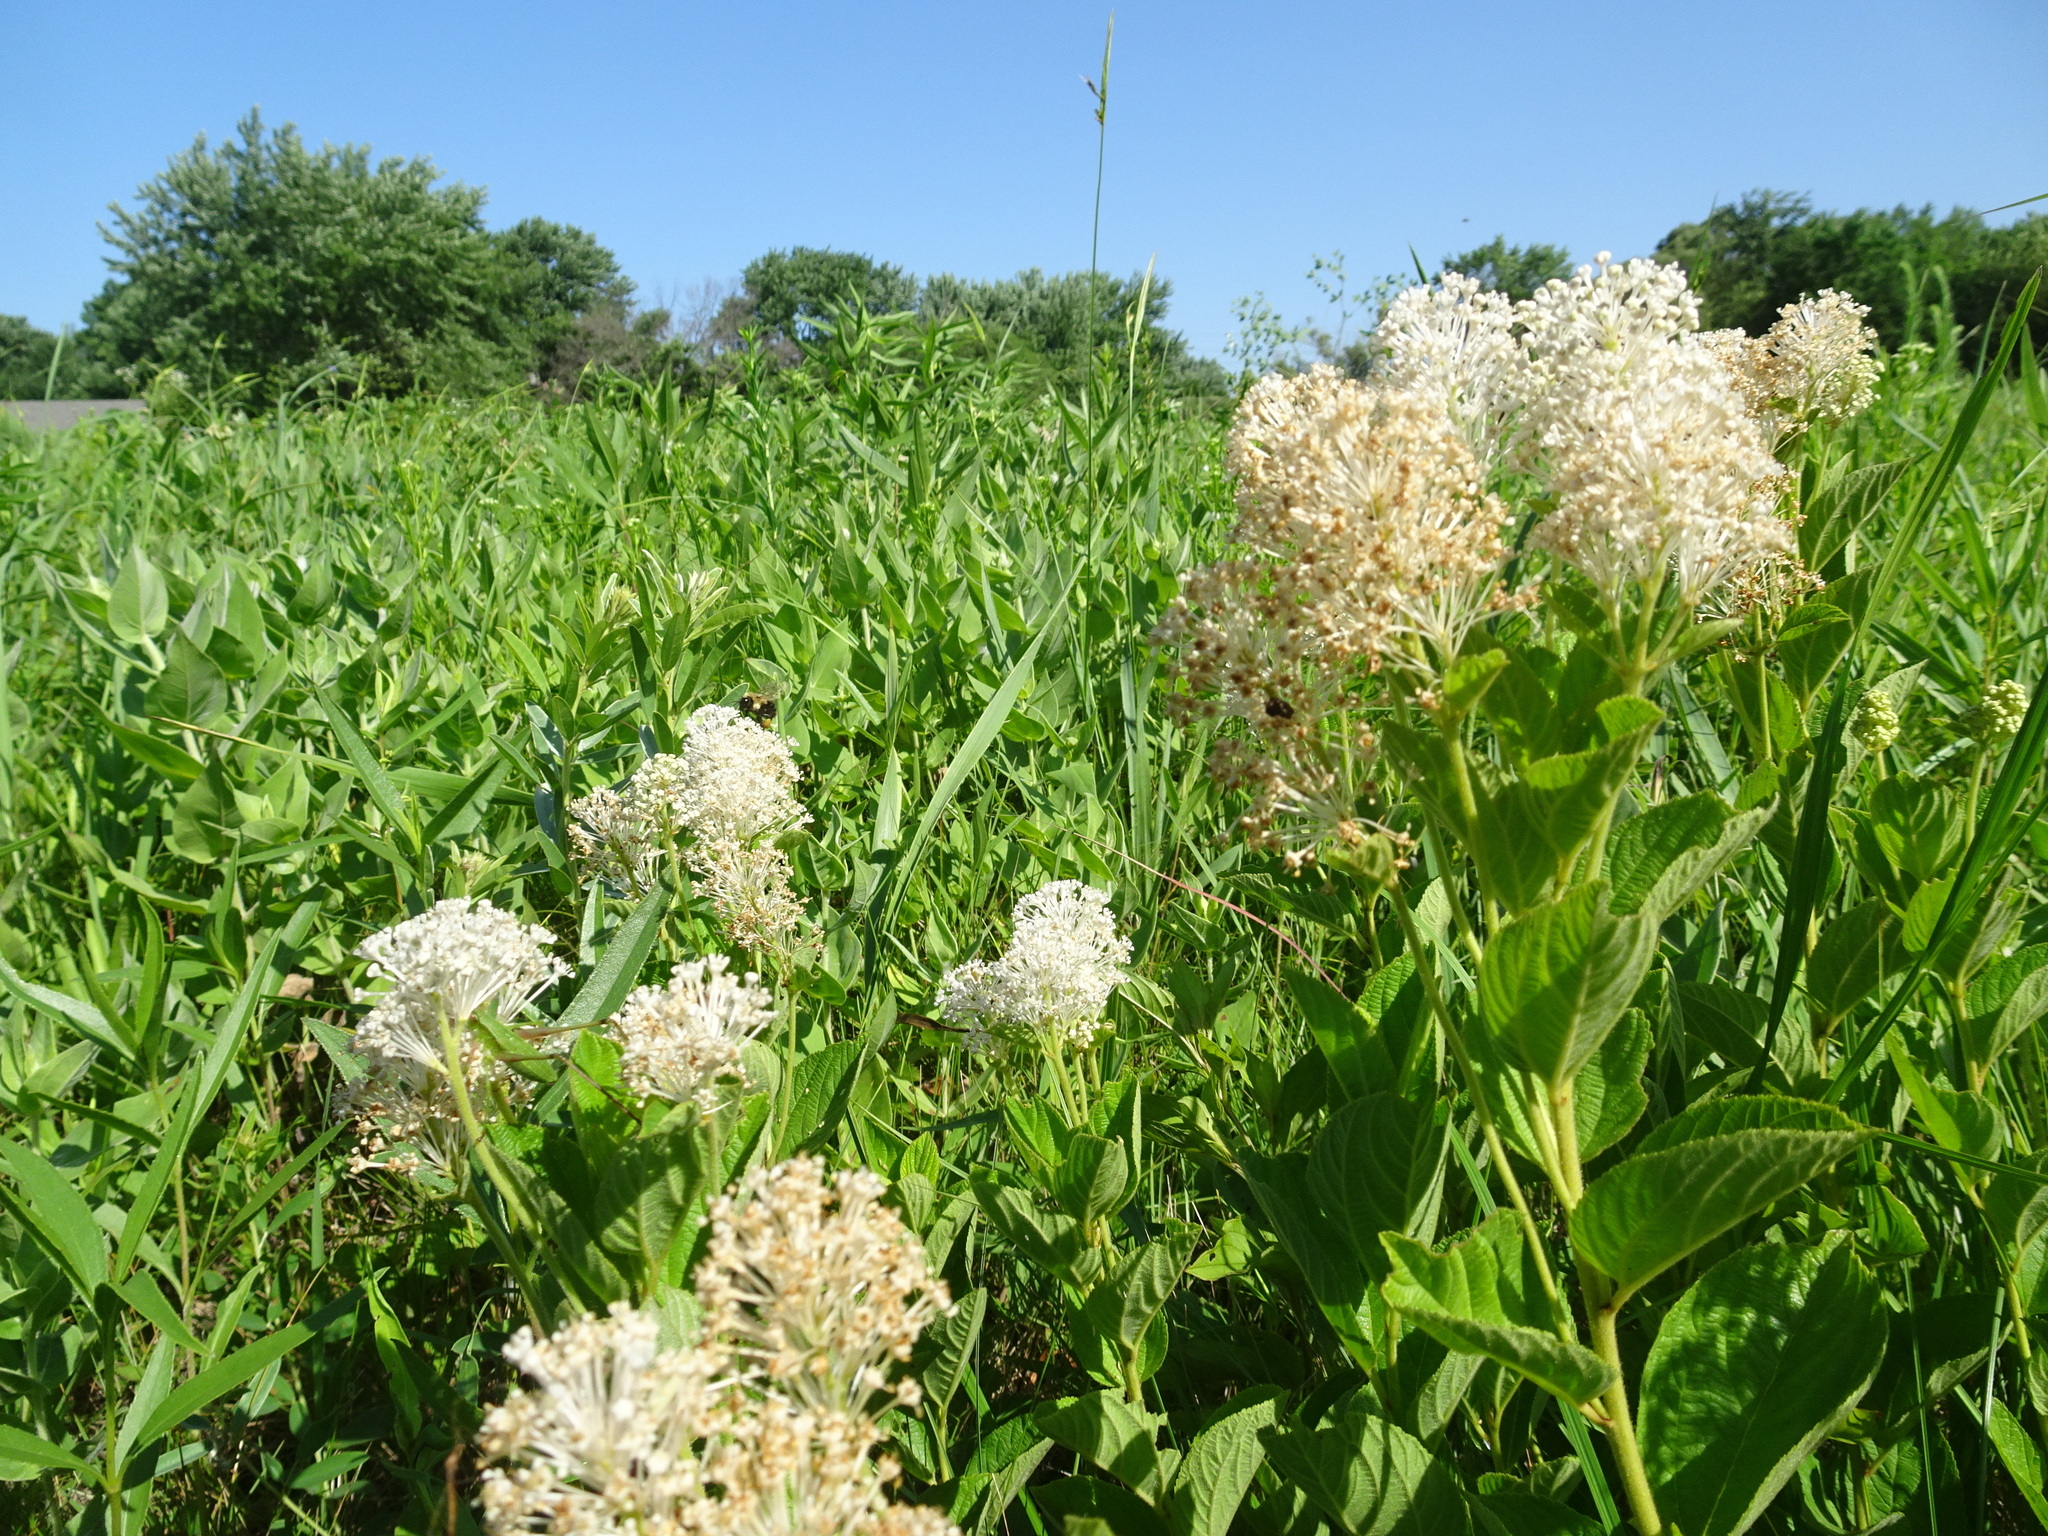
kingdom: Plantae
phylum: Tracheophyta
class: Magnoliopsida
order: Rosales
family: Rhamnaceae
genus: Ceanothus
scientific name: Ceanothus americanus
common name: Redroot
